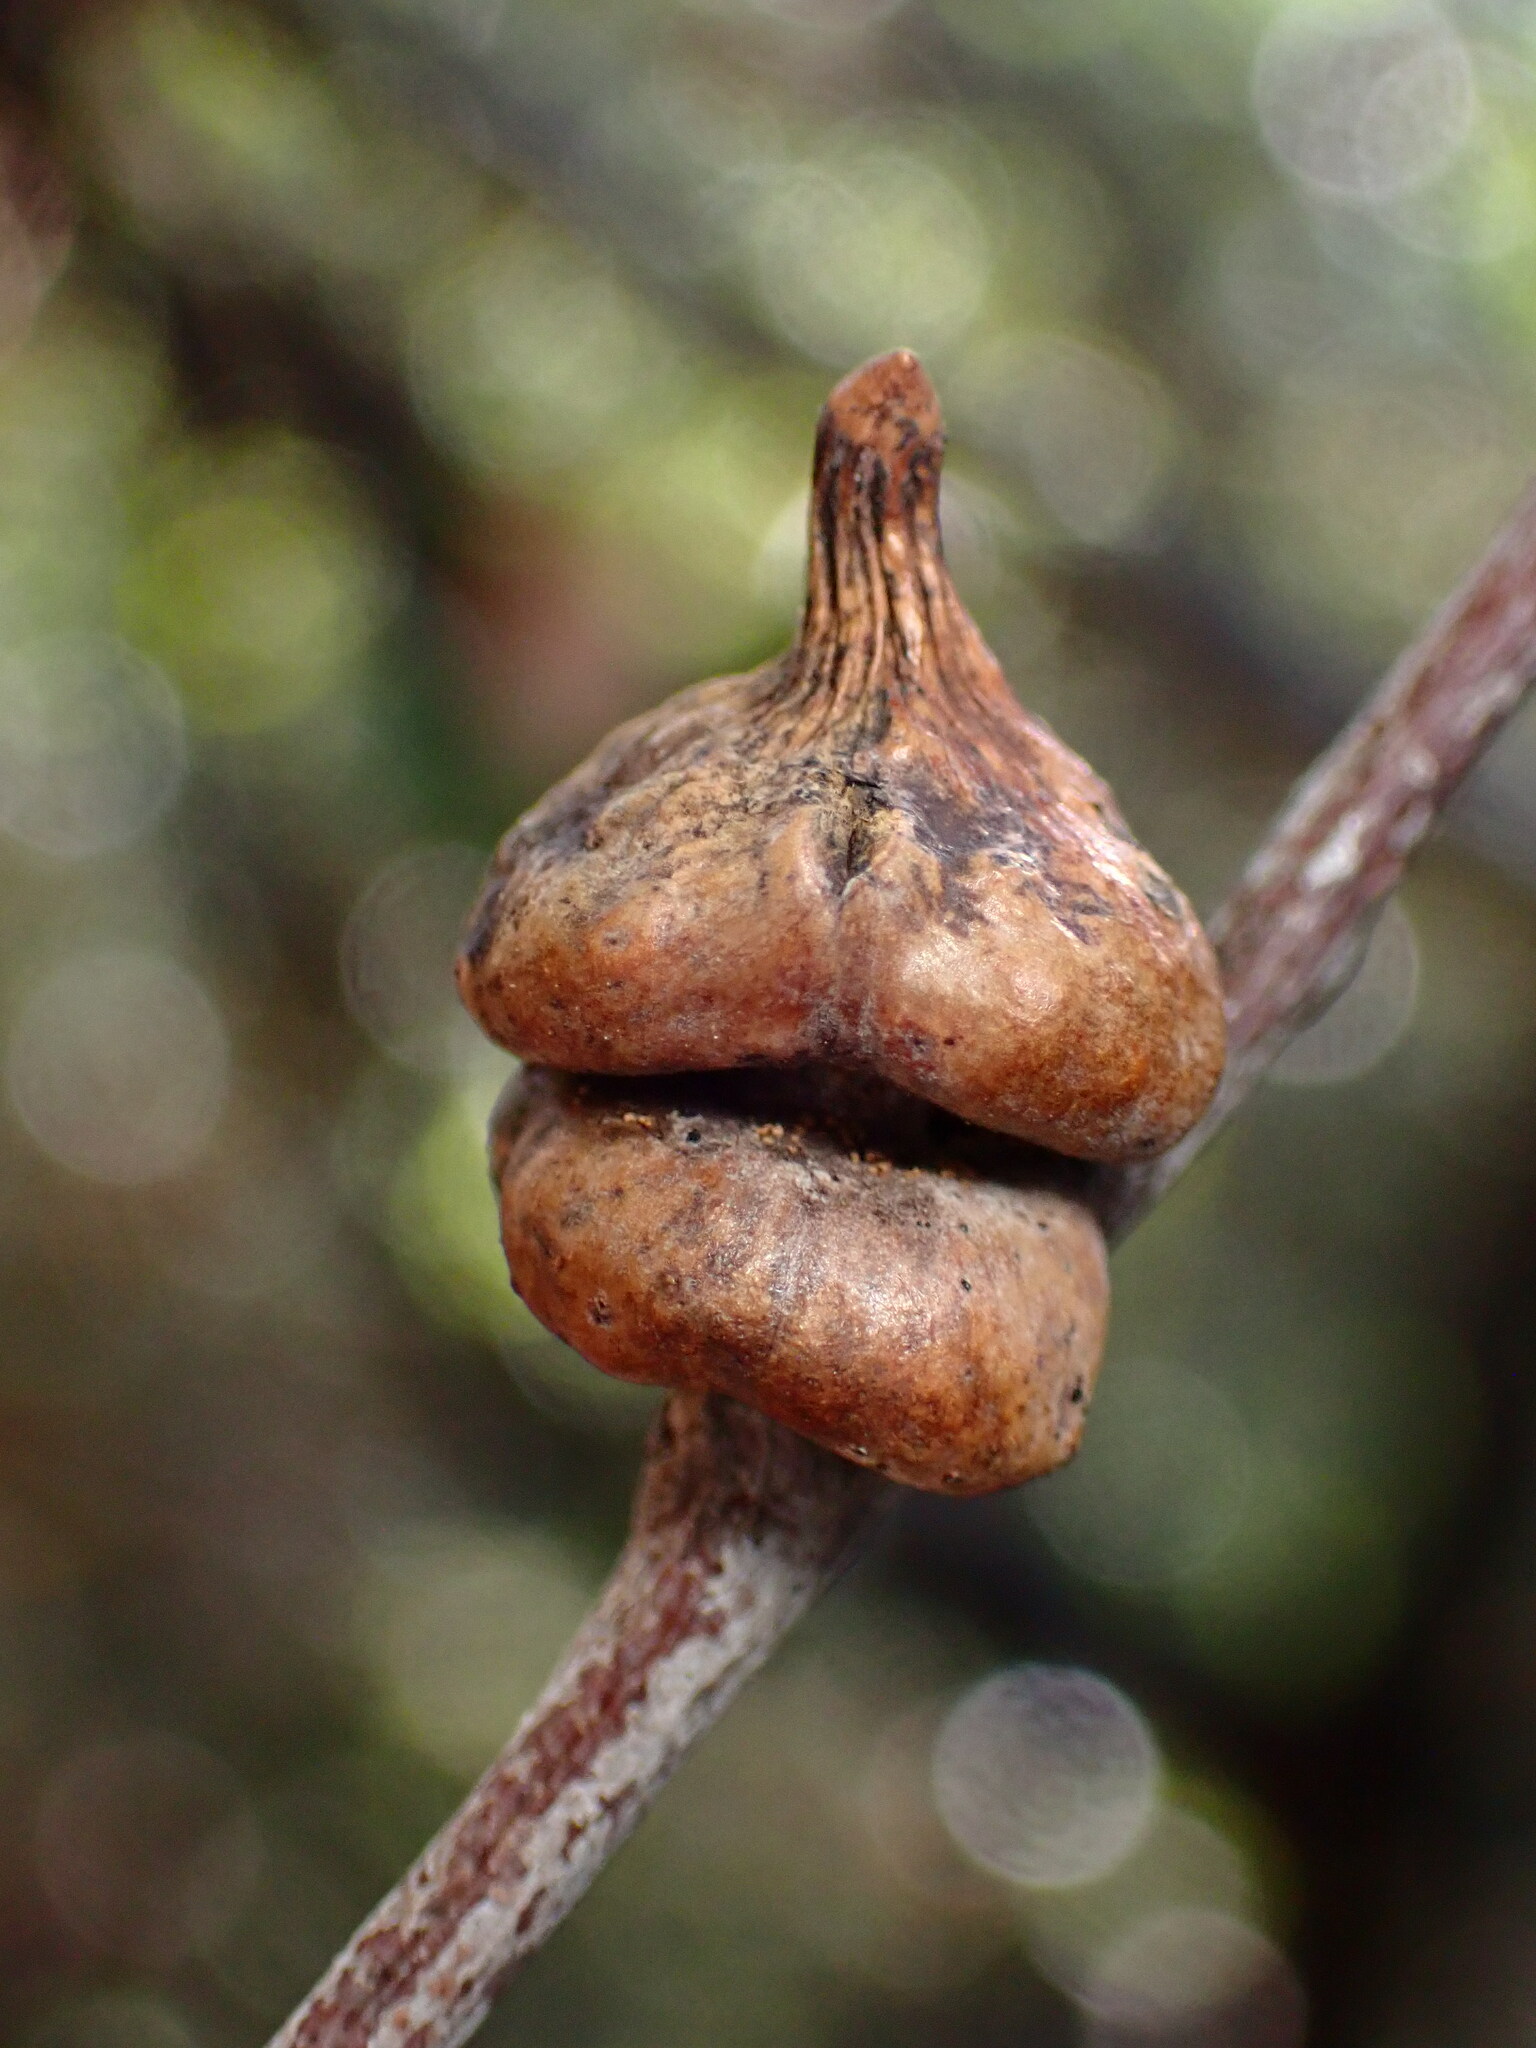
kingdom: Animalia
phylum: Arthropoda
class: Insecta
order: Hymenoptera
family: Cynipidae
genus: Heteroecus
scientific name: Heteroecus
